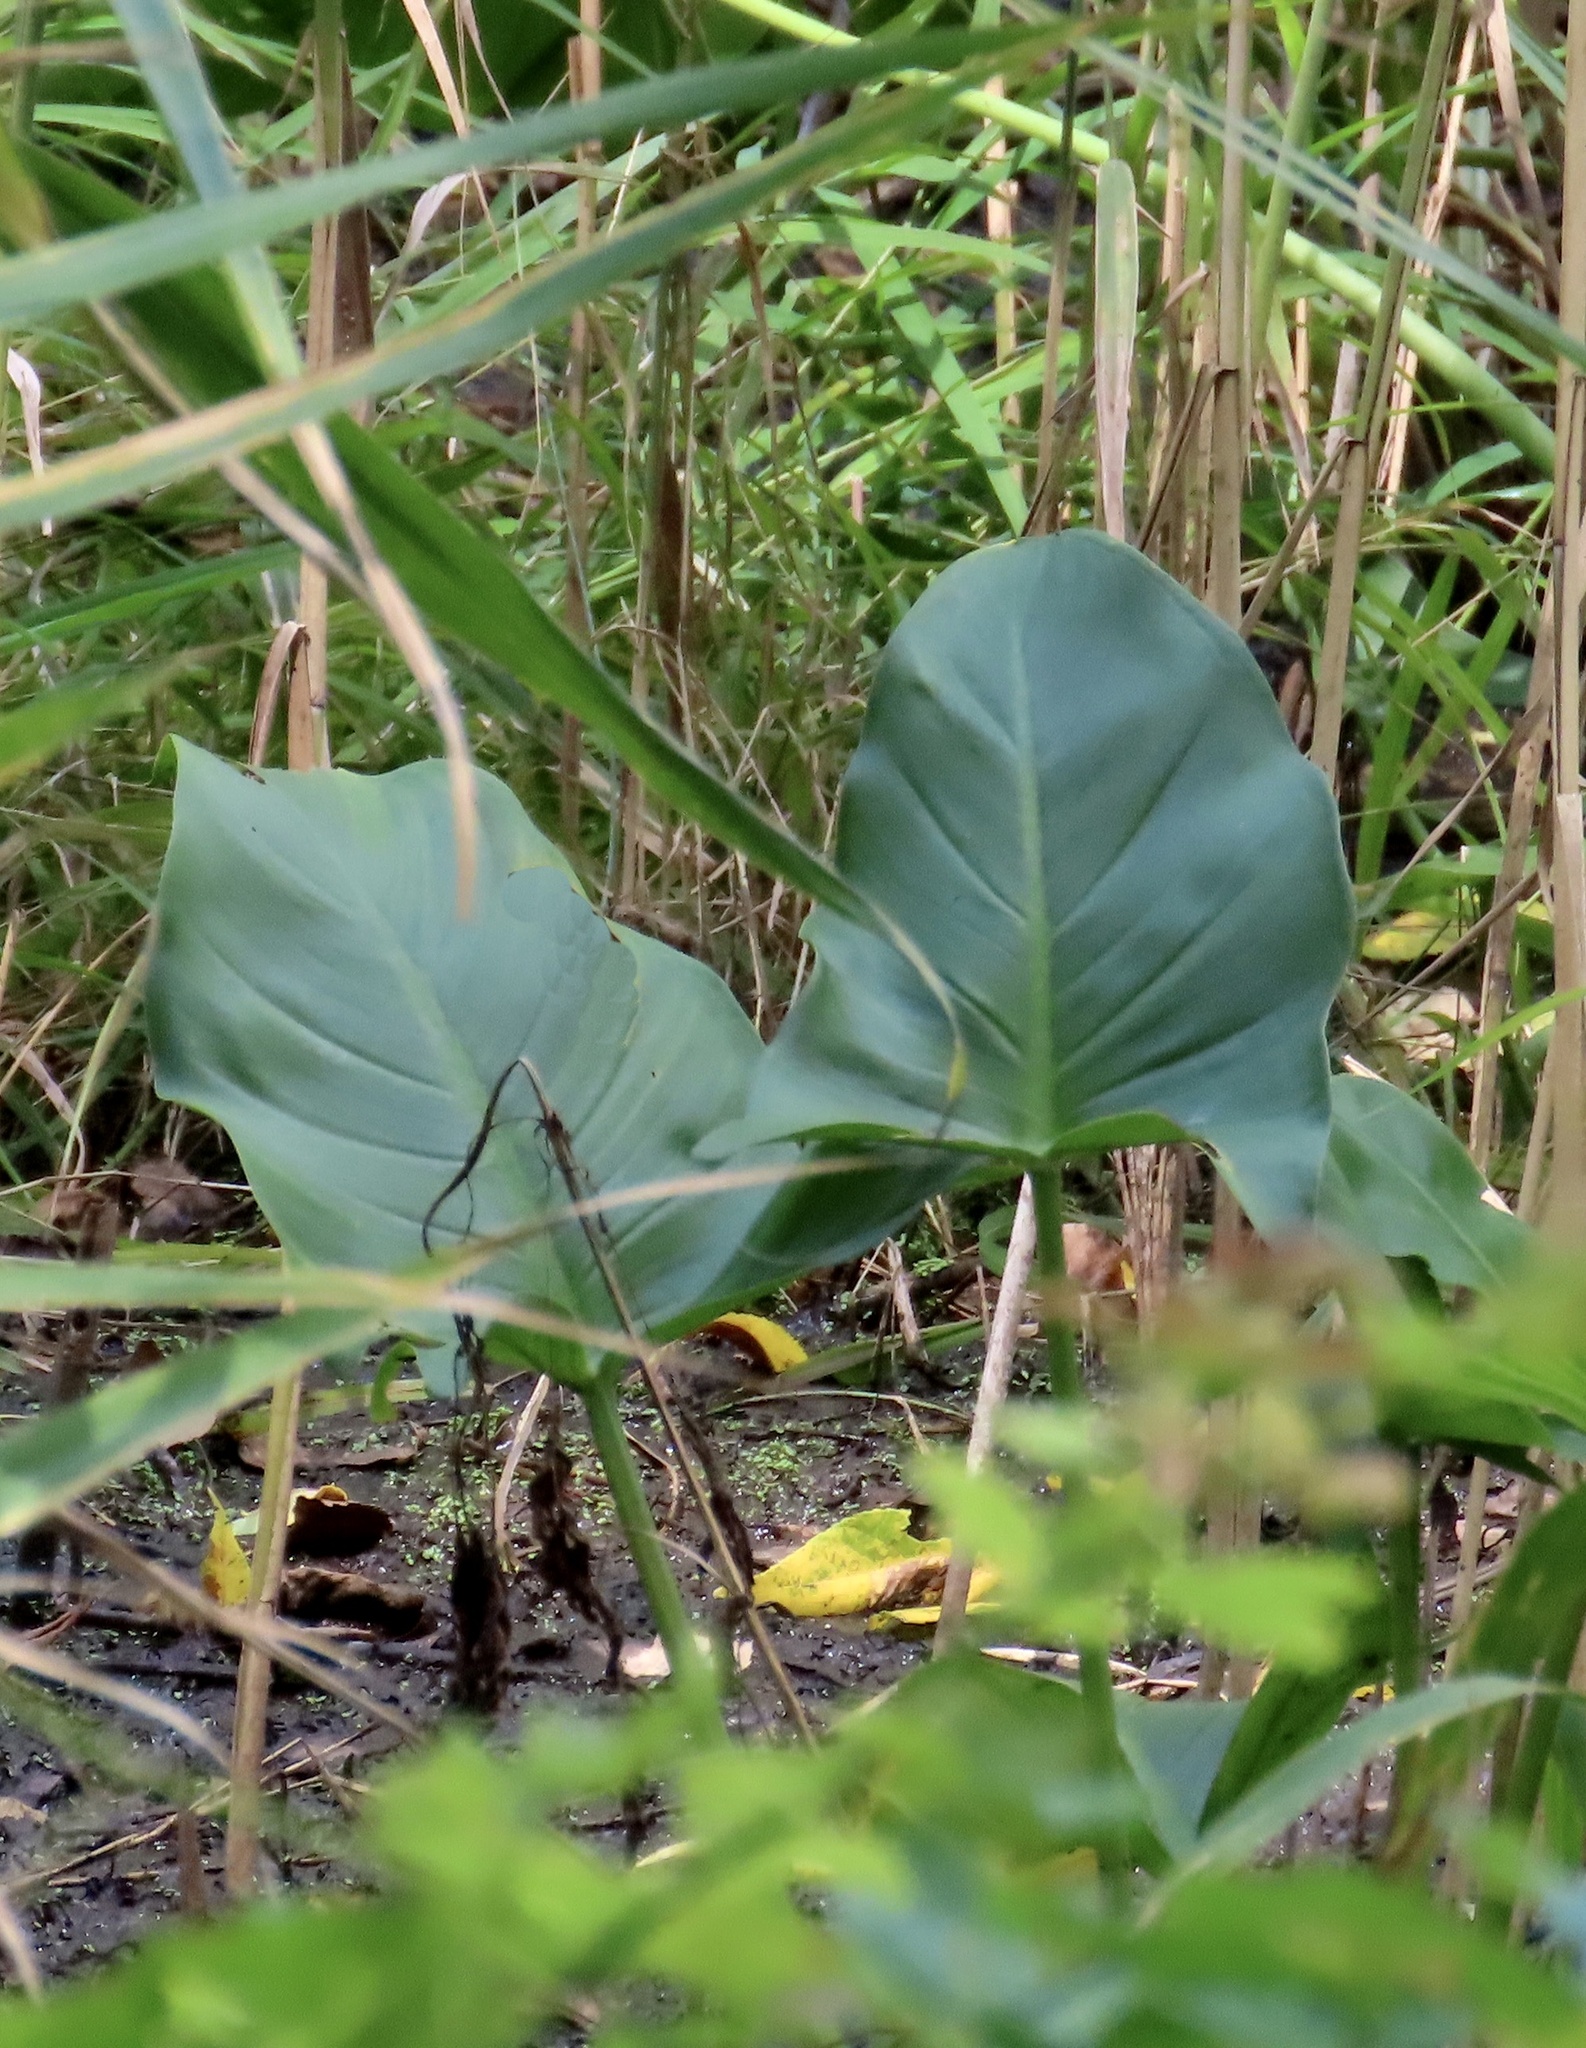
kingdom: Plantae
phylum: Tracheophyta
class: Liliopsida
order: Alismatales
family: Araceae
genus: Peltandra
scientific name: Peltandra virginica
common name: Arrow arum
